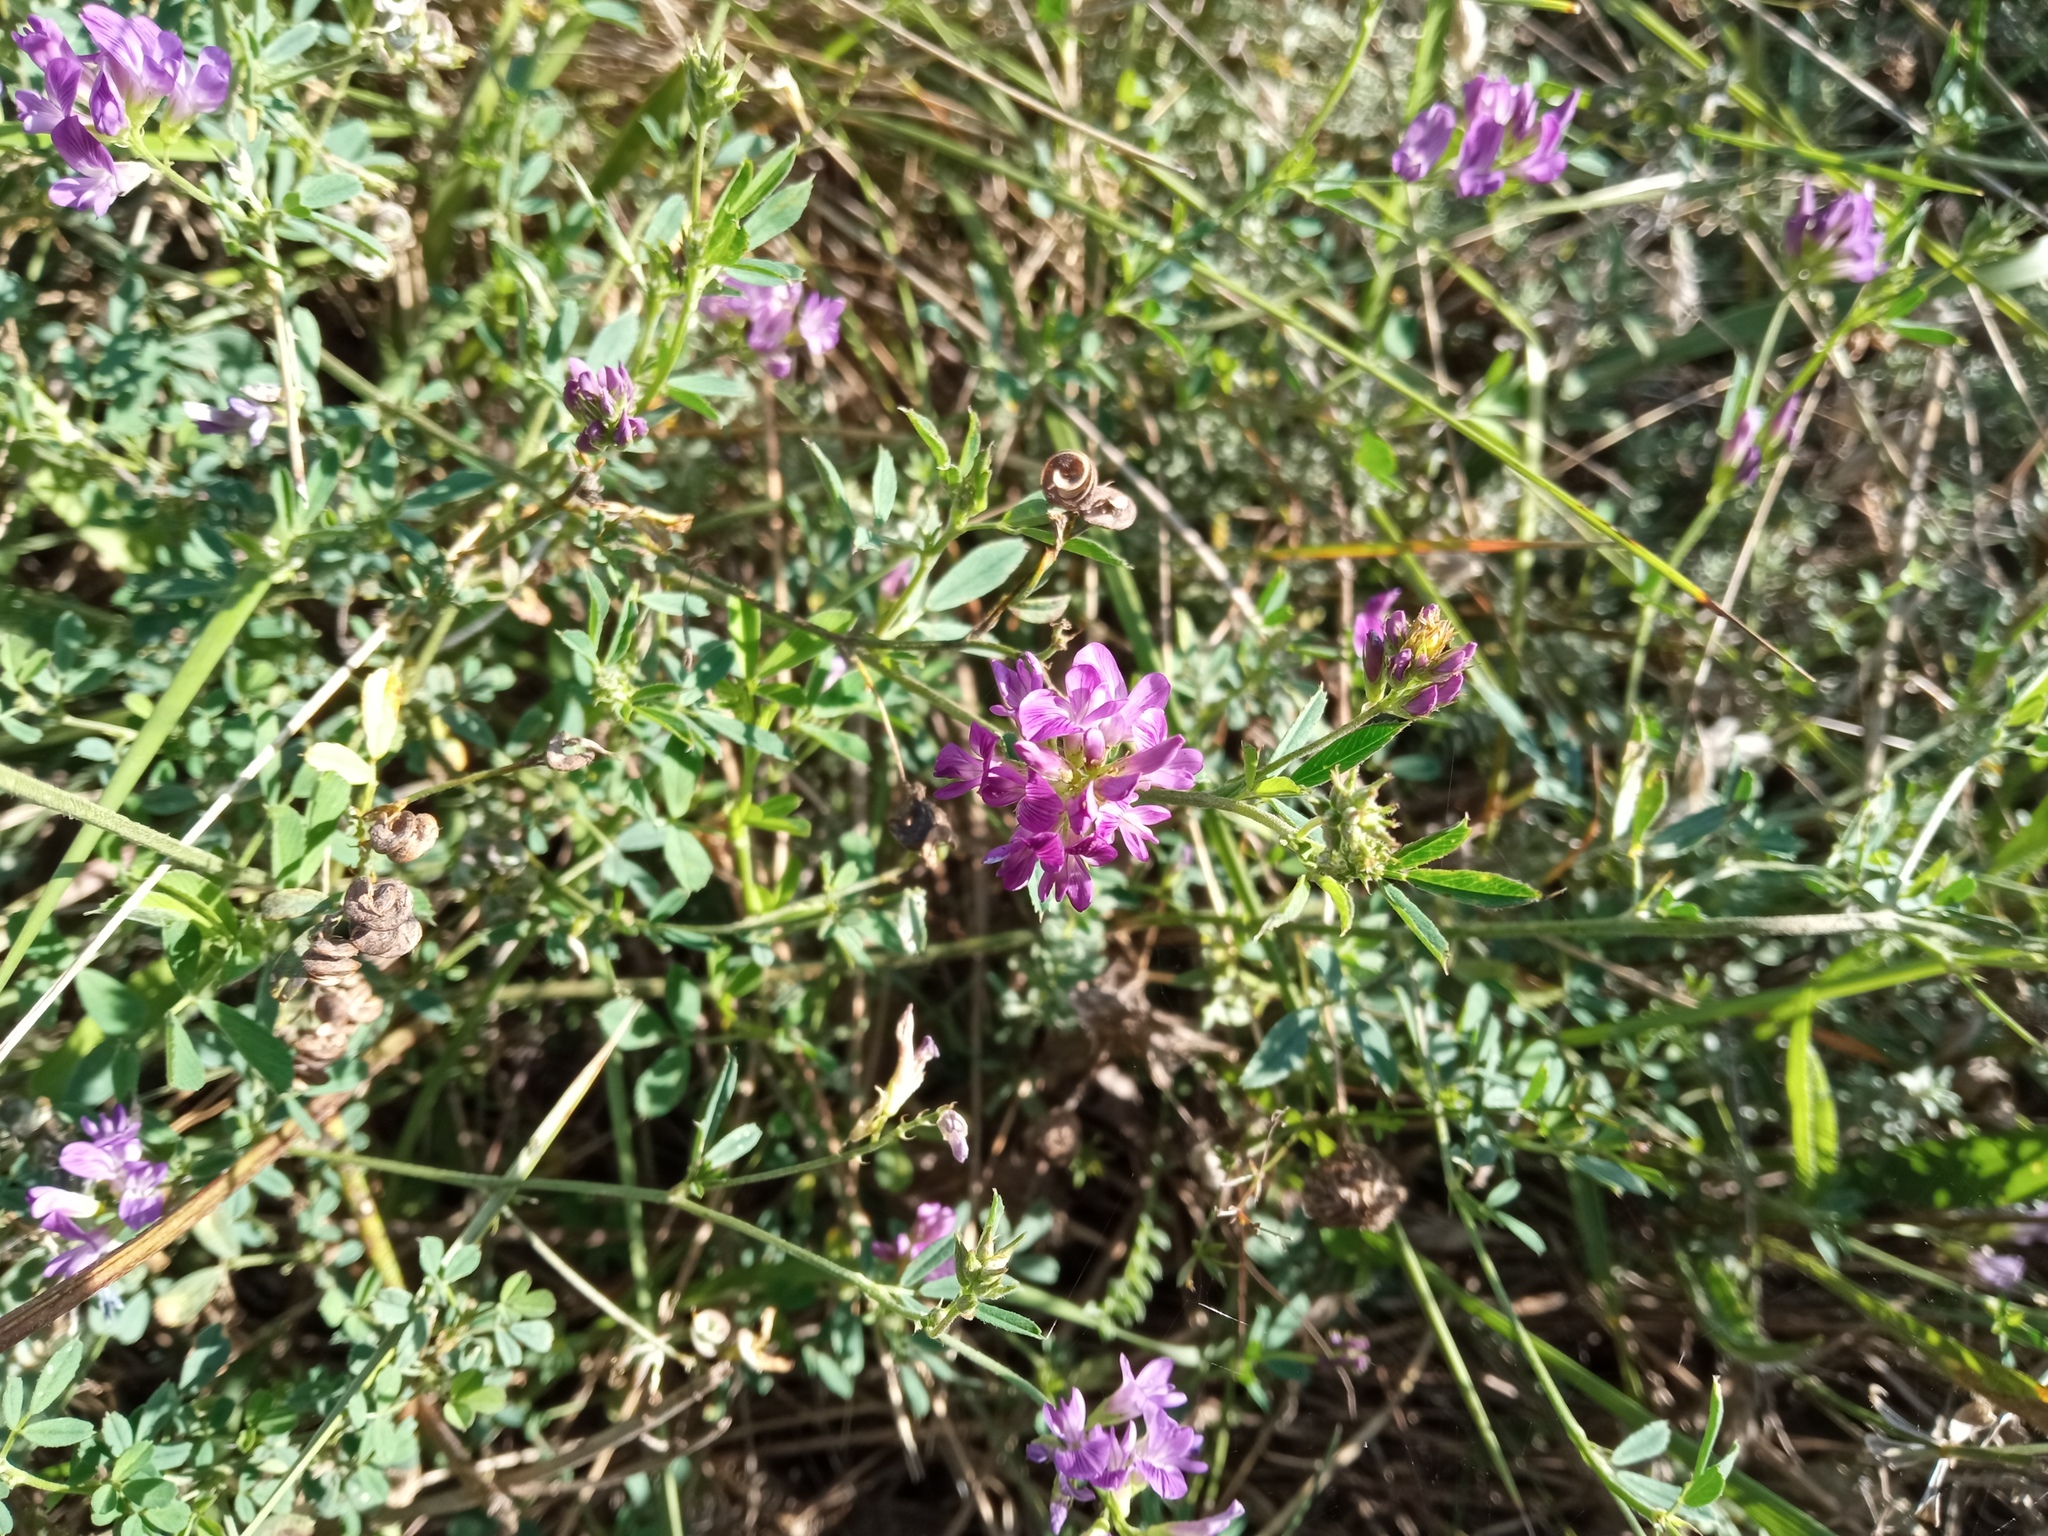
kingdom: Plantae
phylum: Tracheophyta
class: Magnoliopsida
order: Fabales
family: Fabaceae
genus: Medicago
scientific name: Medicago sativa
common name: Alfalfa
